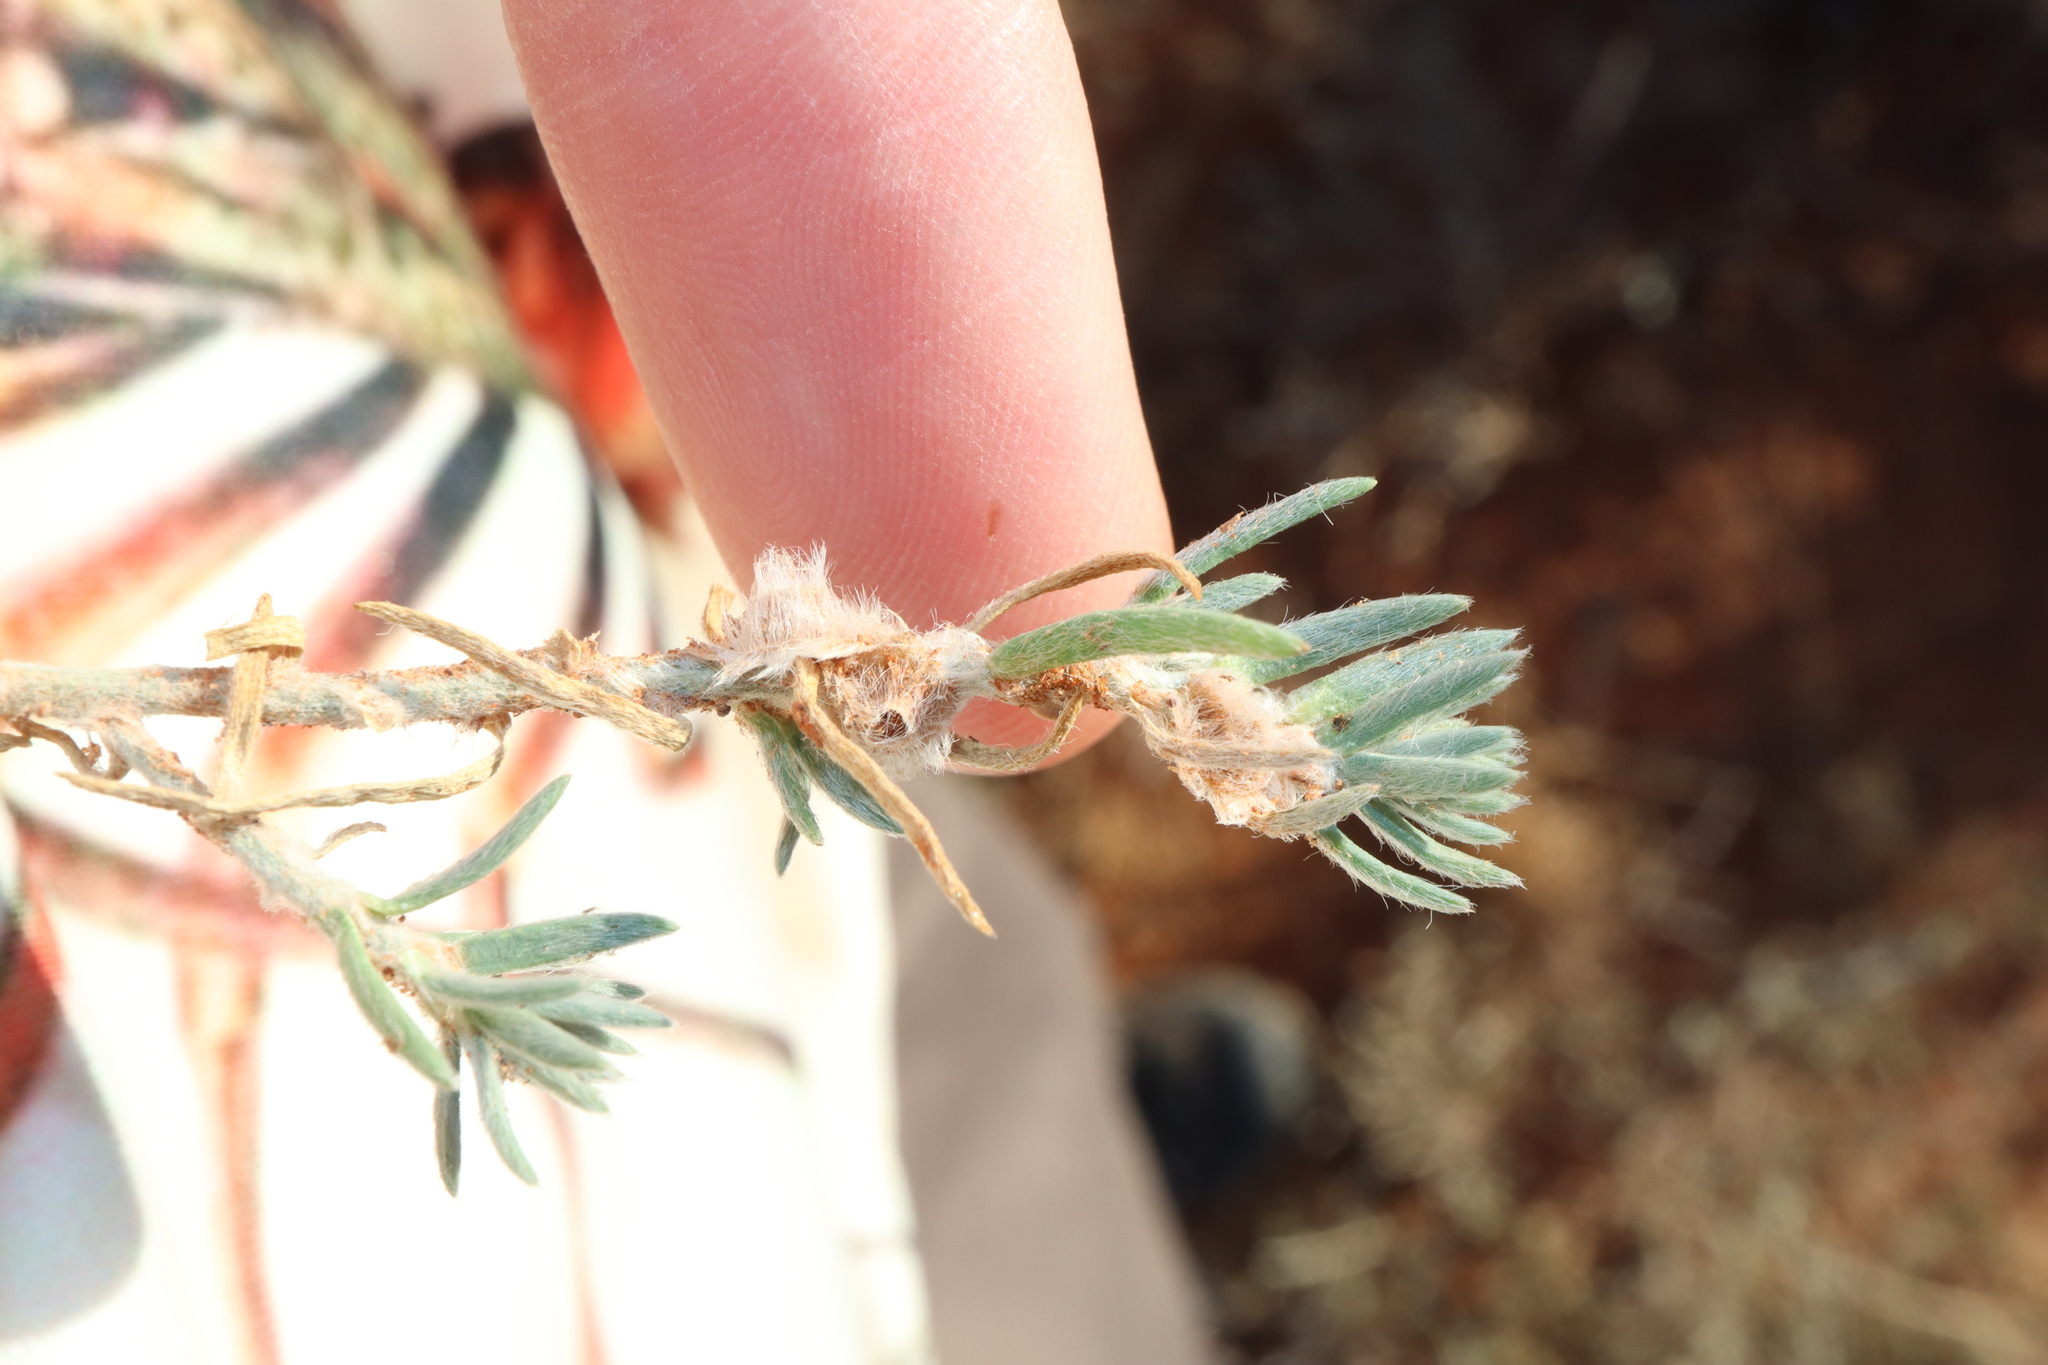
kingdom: Plantae
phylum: Tracheophyta
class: Magnoliopsida
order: Caryophyllales
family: Amaranthaceae
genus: Maireana
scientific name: Maireana coronata
